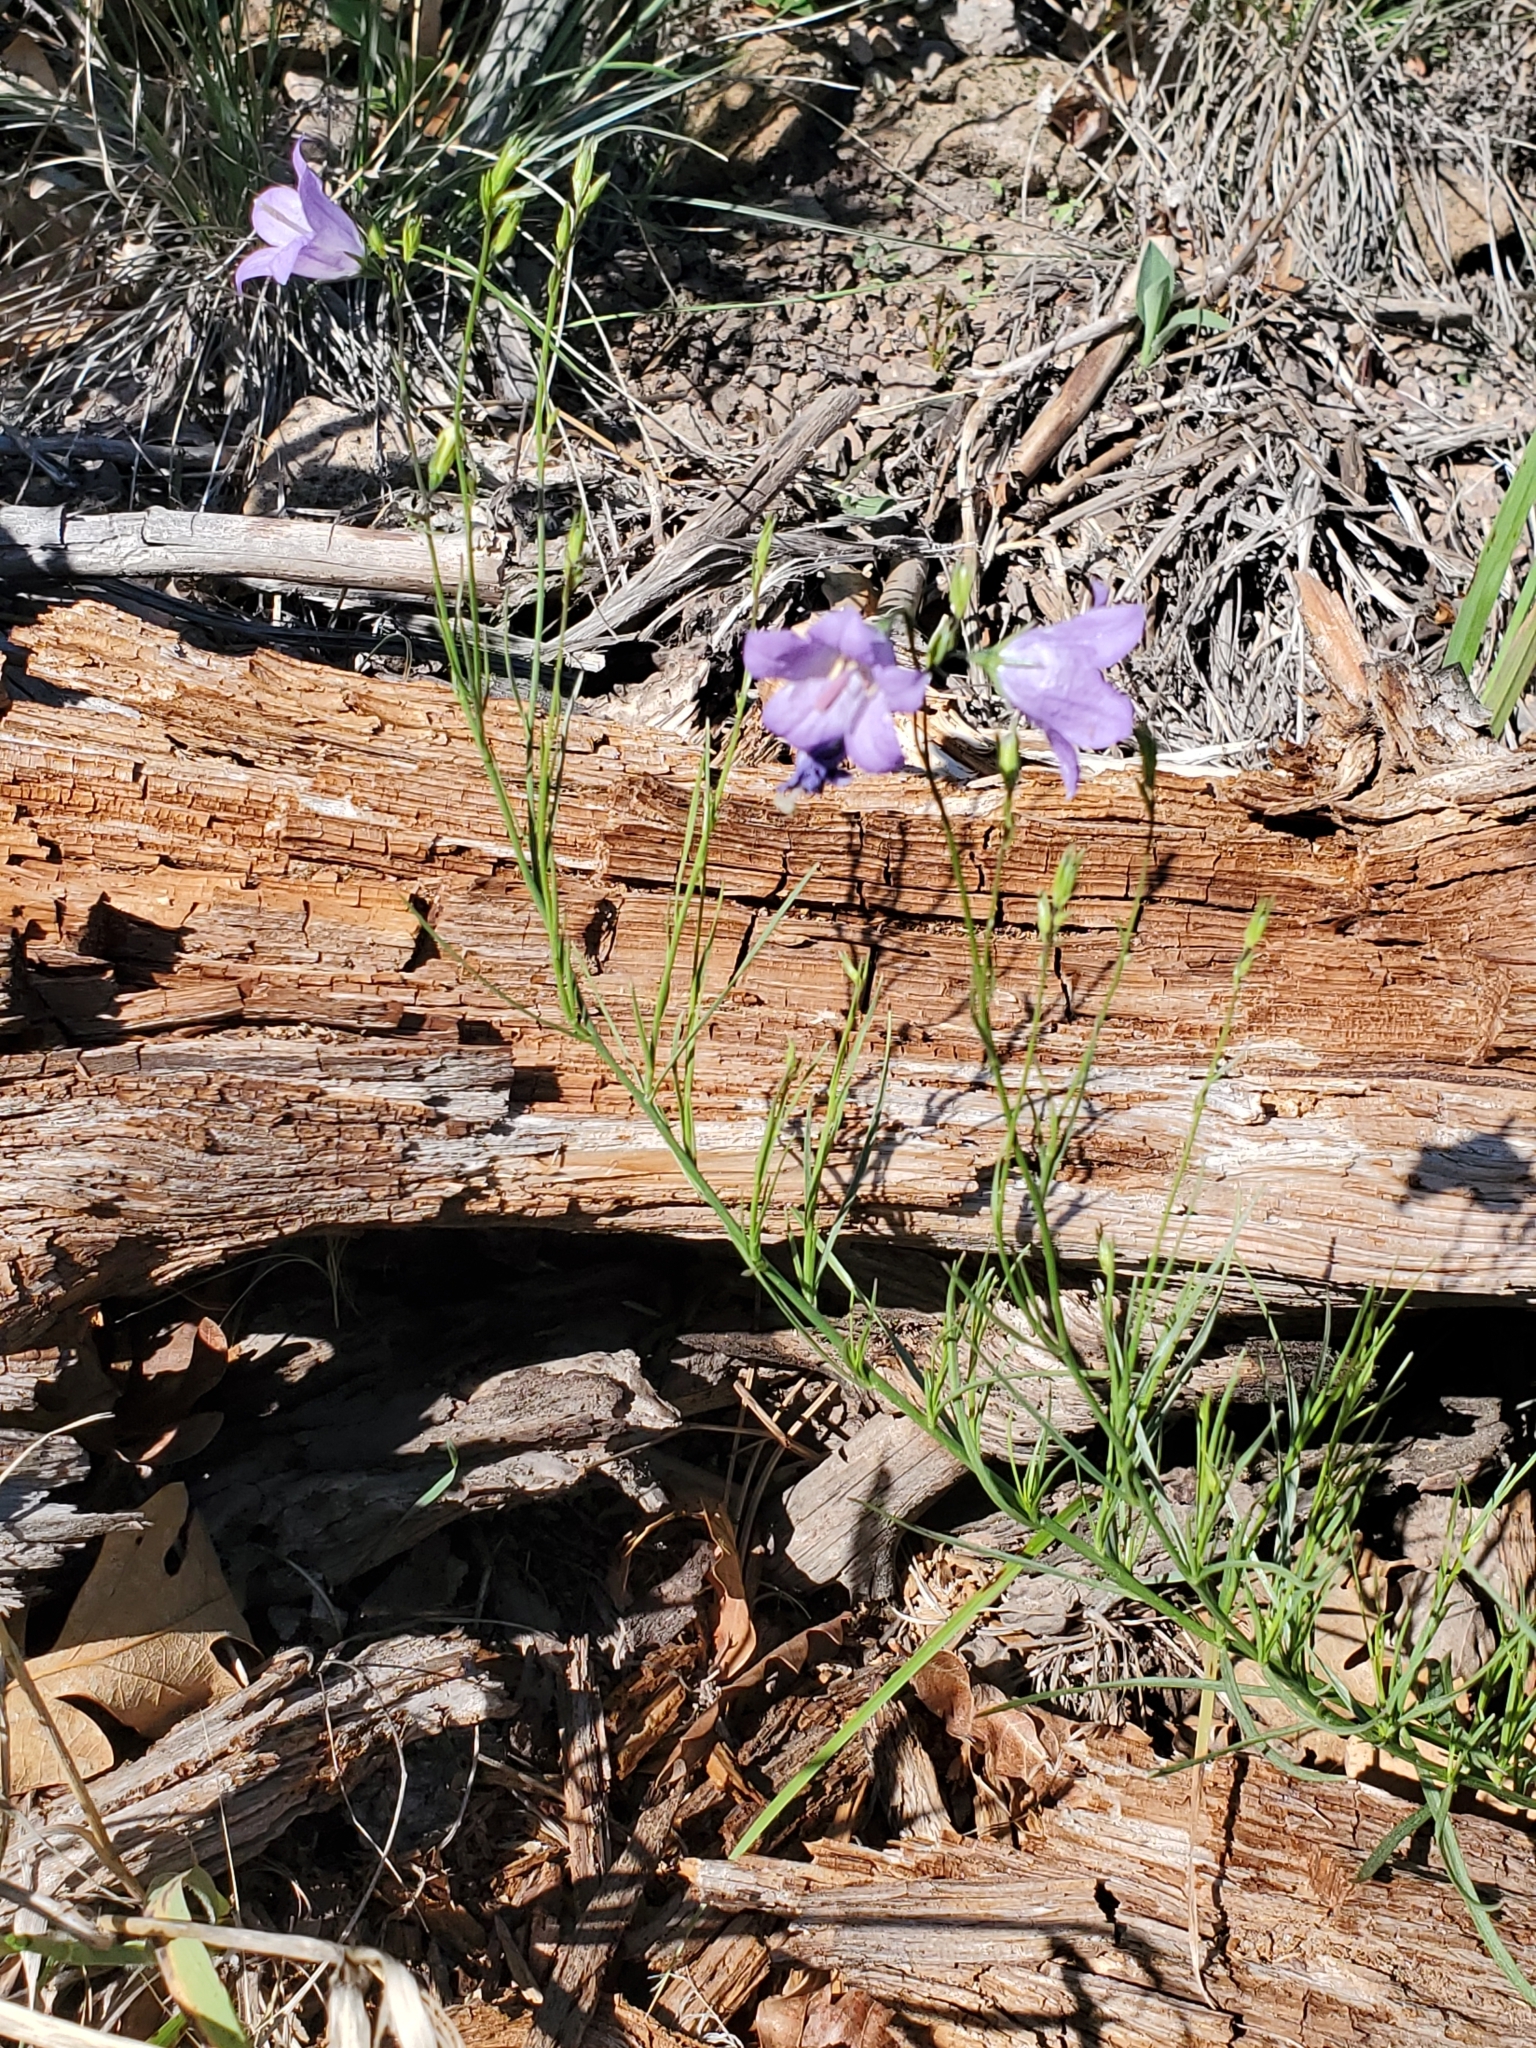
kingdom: Plantae
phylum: Tracheophyta
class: Magnoliopsida
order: Asterales
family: Campanulaceae
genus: Campanula
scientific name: Campanula petiolata
